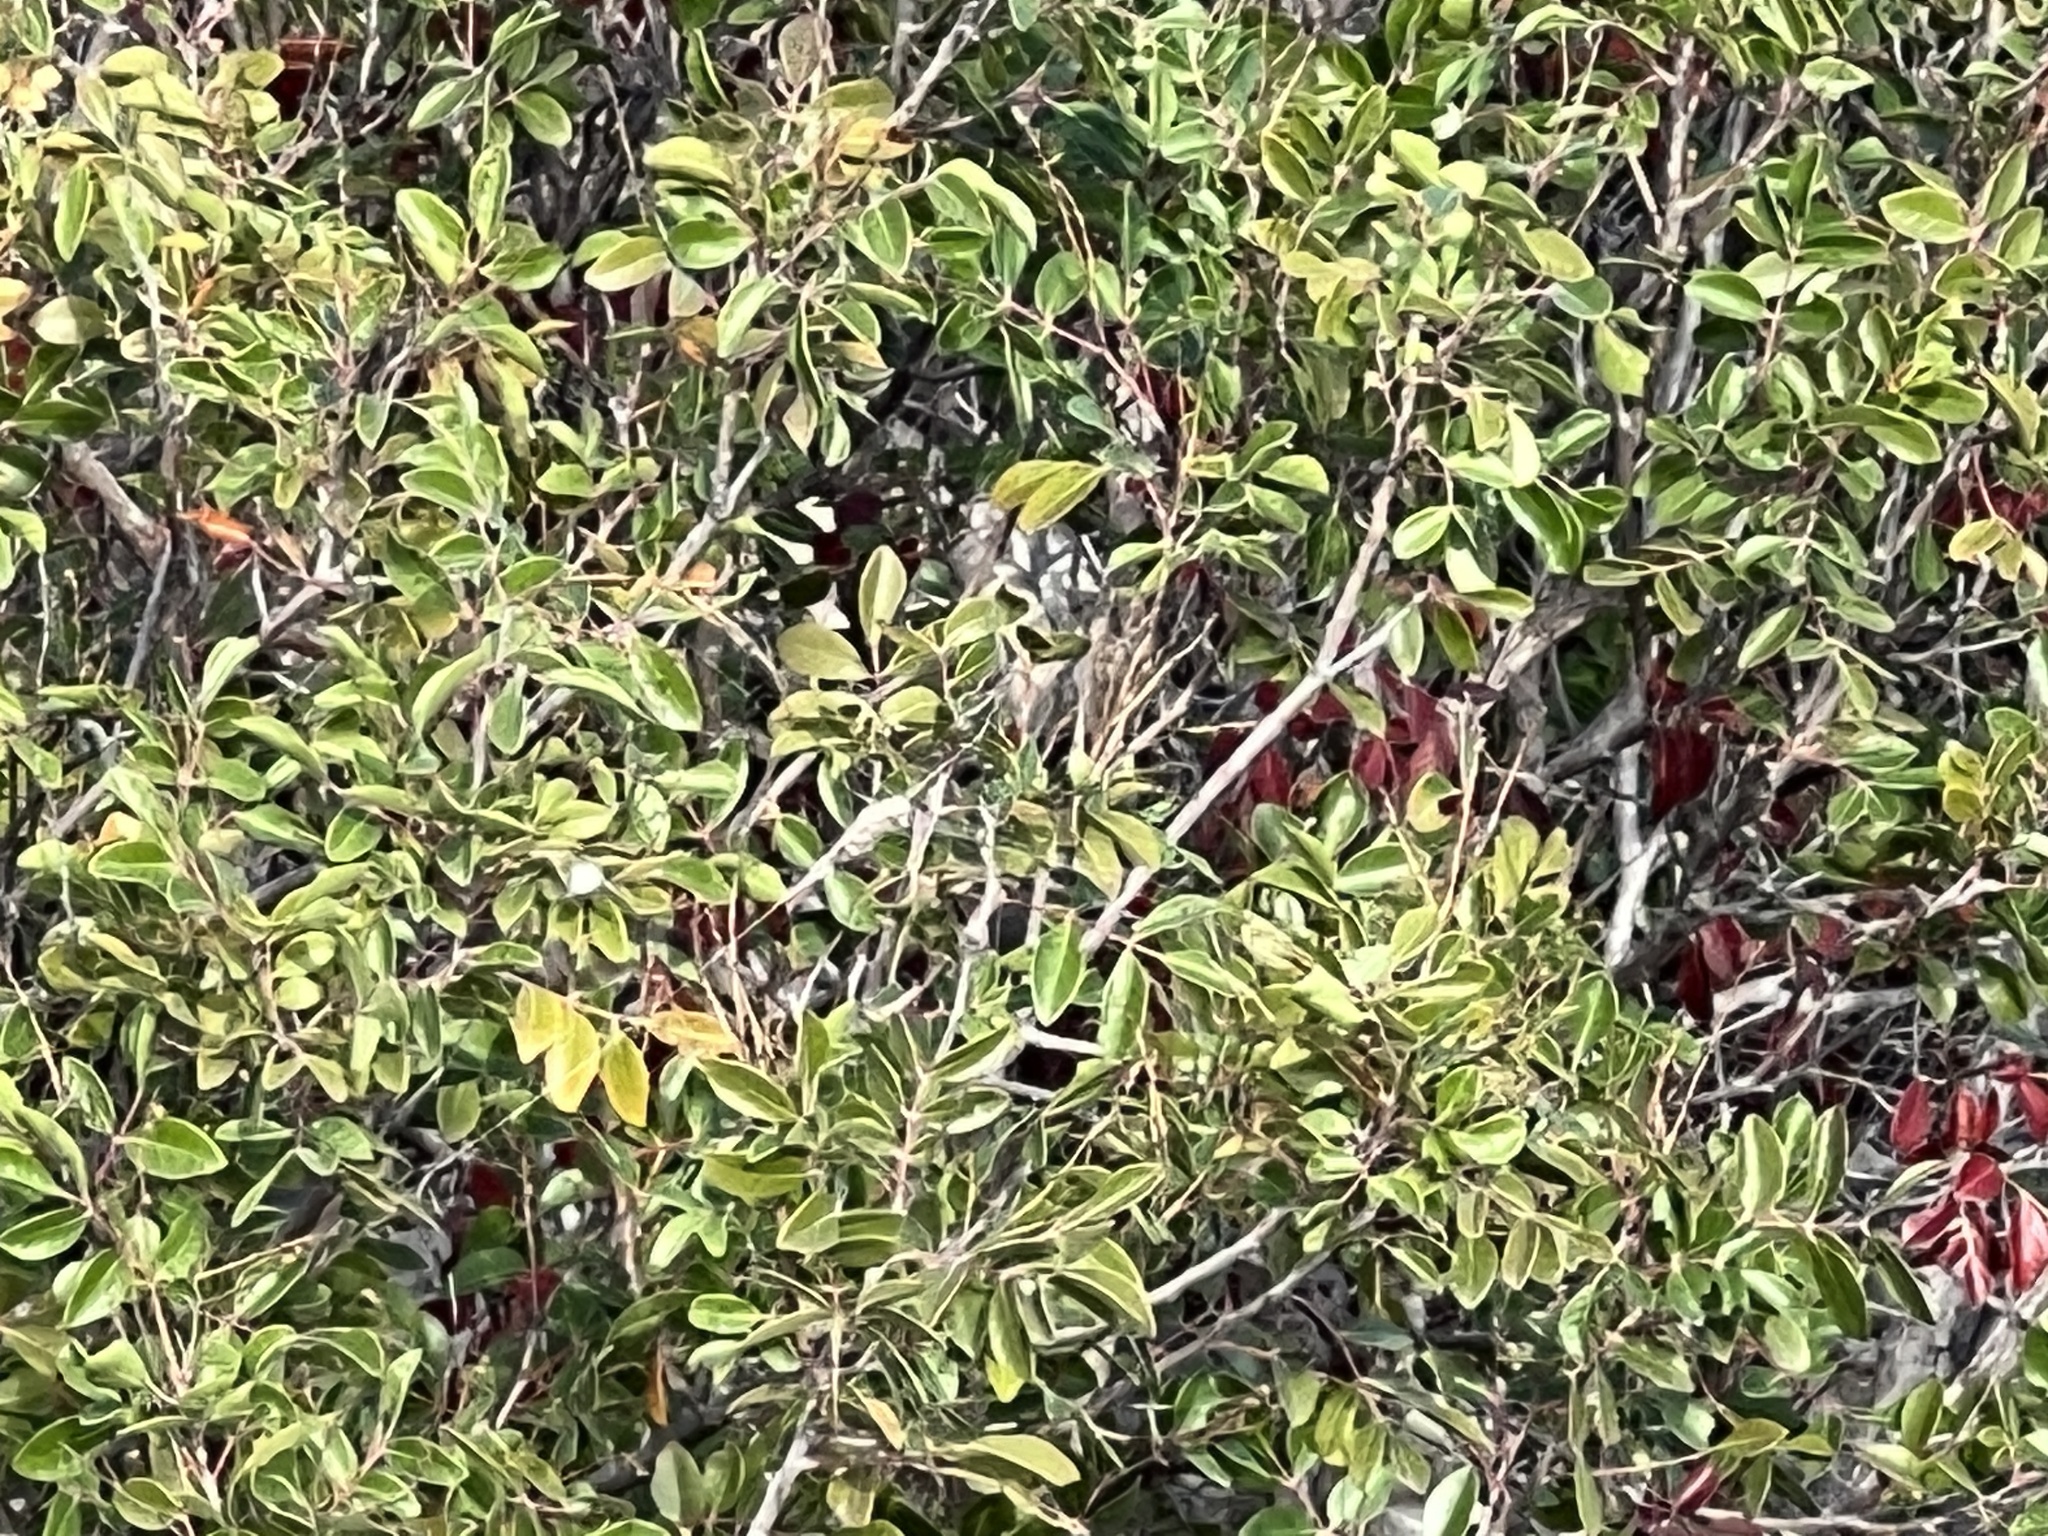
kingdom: Plantae
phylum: Tracheophyta
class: Magnoliopsida
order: Sapindales
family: Anacardiaceae
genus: Rhus
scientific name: Rhus virens
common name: Evergreen sumac
